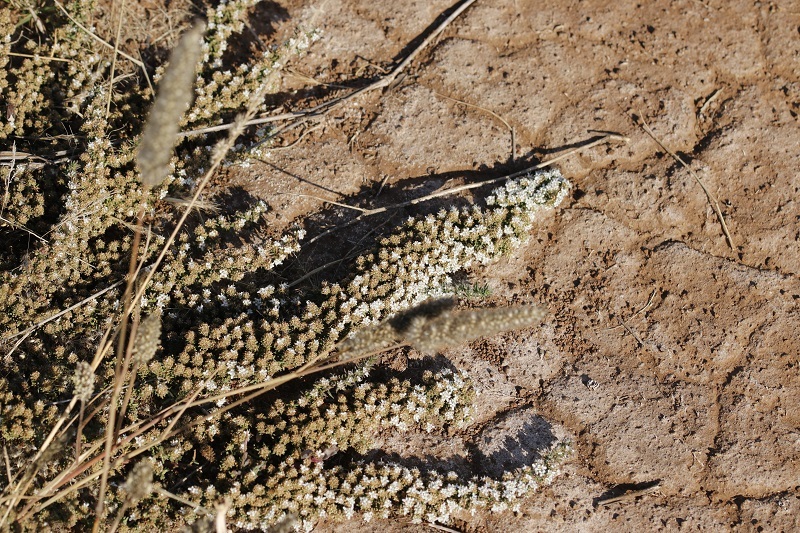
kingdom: Plantae
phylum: Tracheophyta
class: Magnoliopsida
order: Lamiales
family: Scrophulariaceae
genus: Selago
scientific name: Selago densiflora
